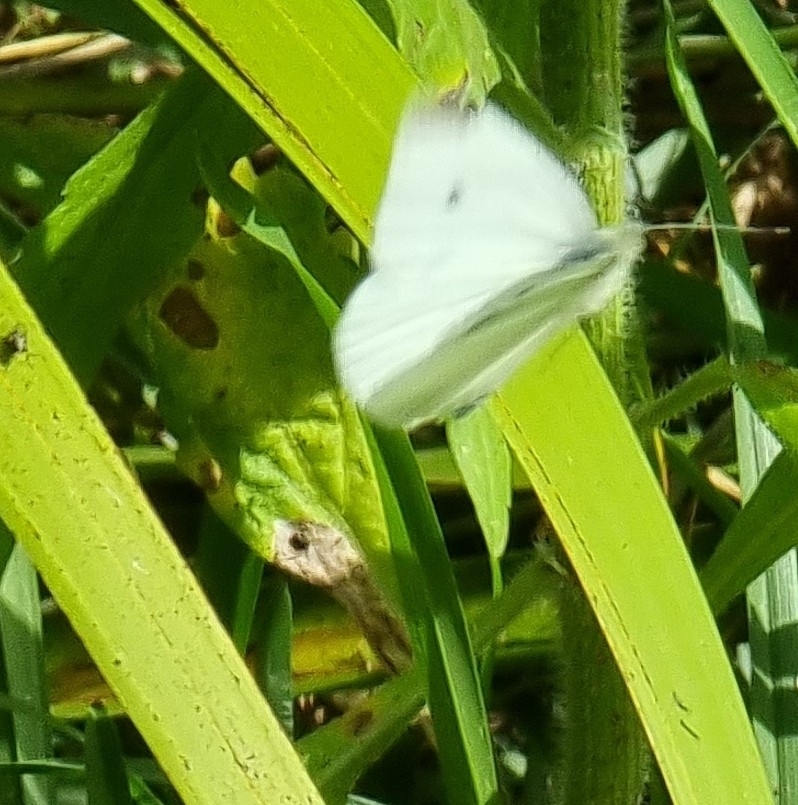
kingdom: Animalia
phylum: Arthropoda
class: Insecta
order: Lepidoptera
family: Pieridae
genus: Pieris
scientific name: Pieris rapae
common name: Small white
